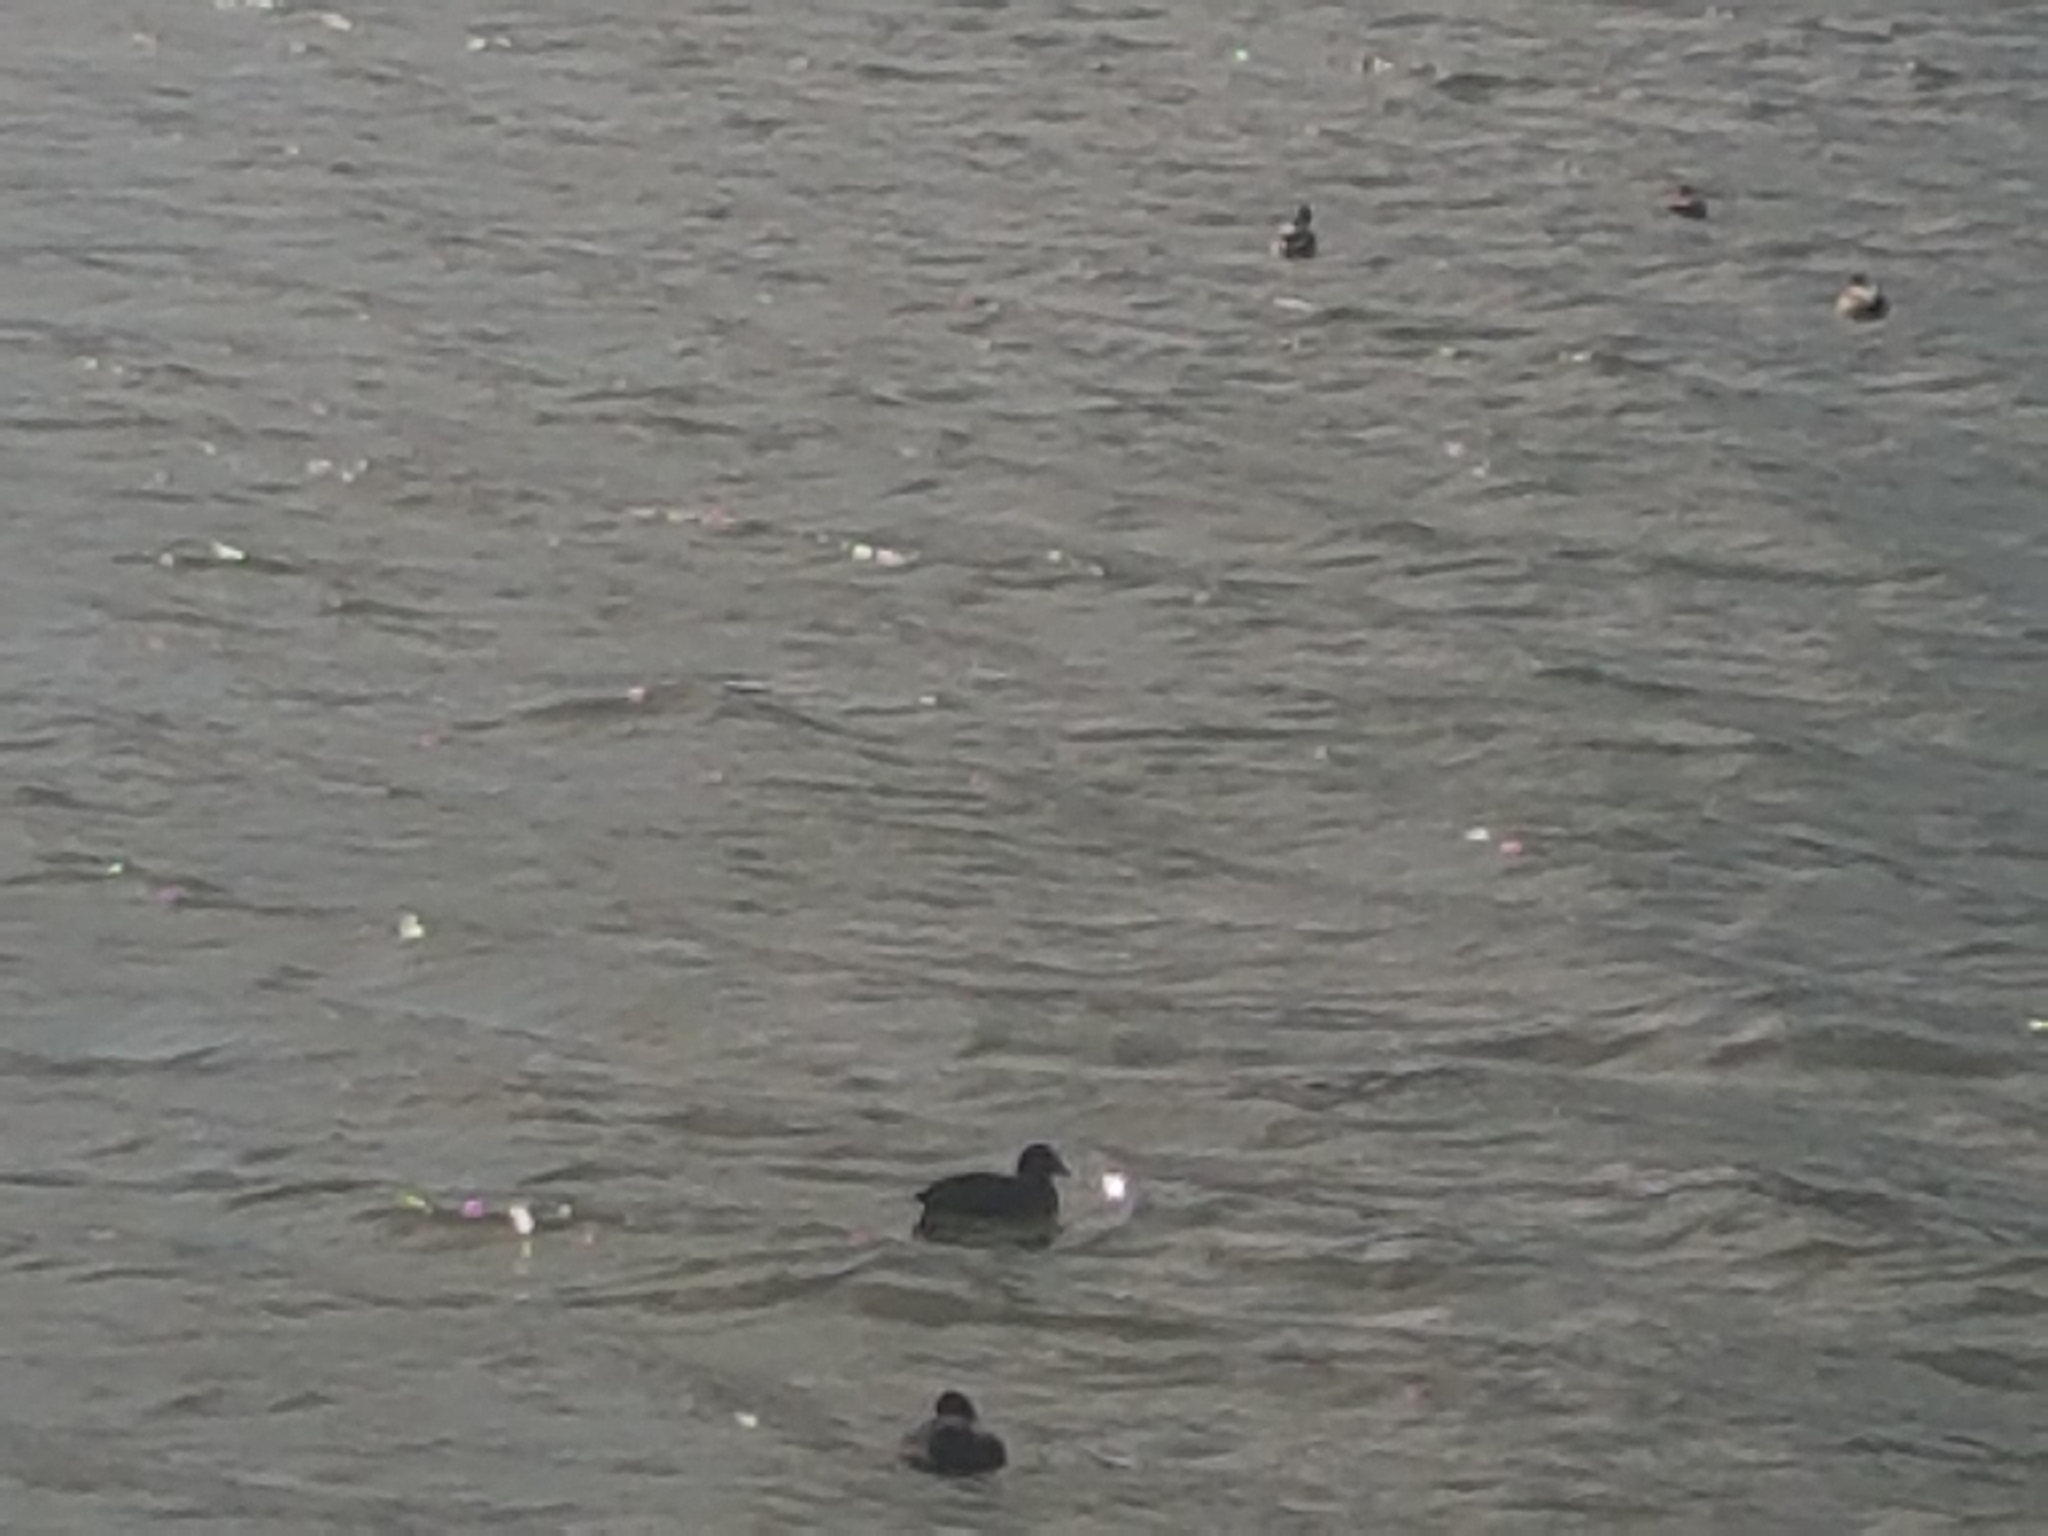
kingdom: Animalia
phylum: Chordata
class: Aves
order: Gruiformes
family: Rallidae
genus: Fulica
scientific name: Fulica atra
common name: Eurasian coot
